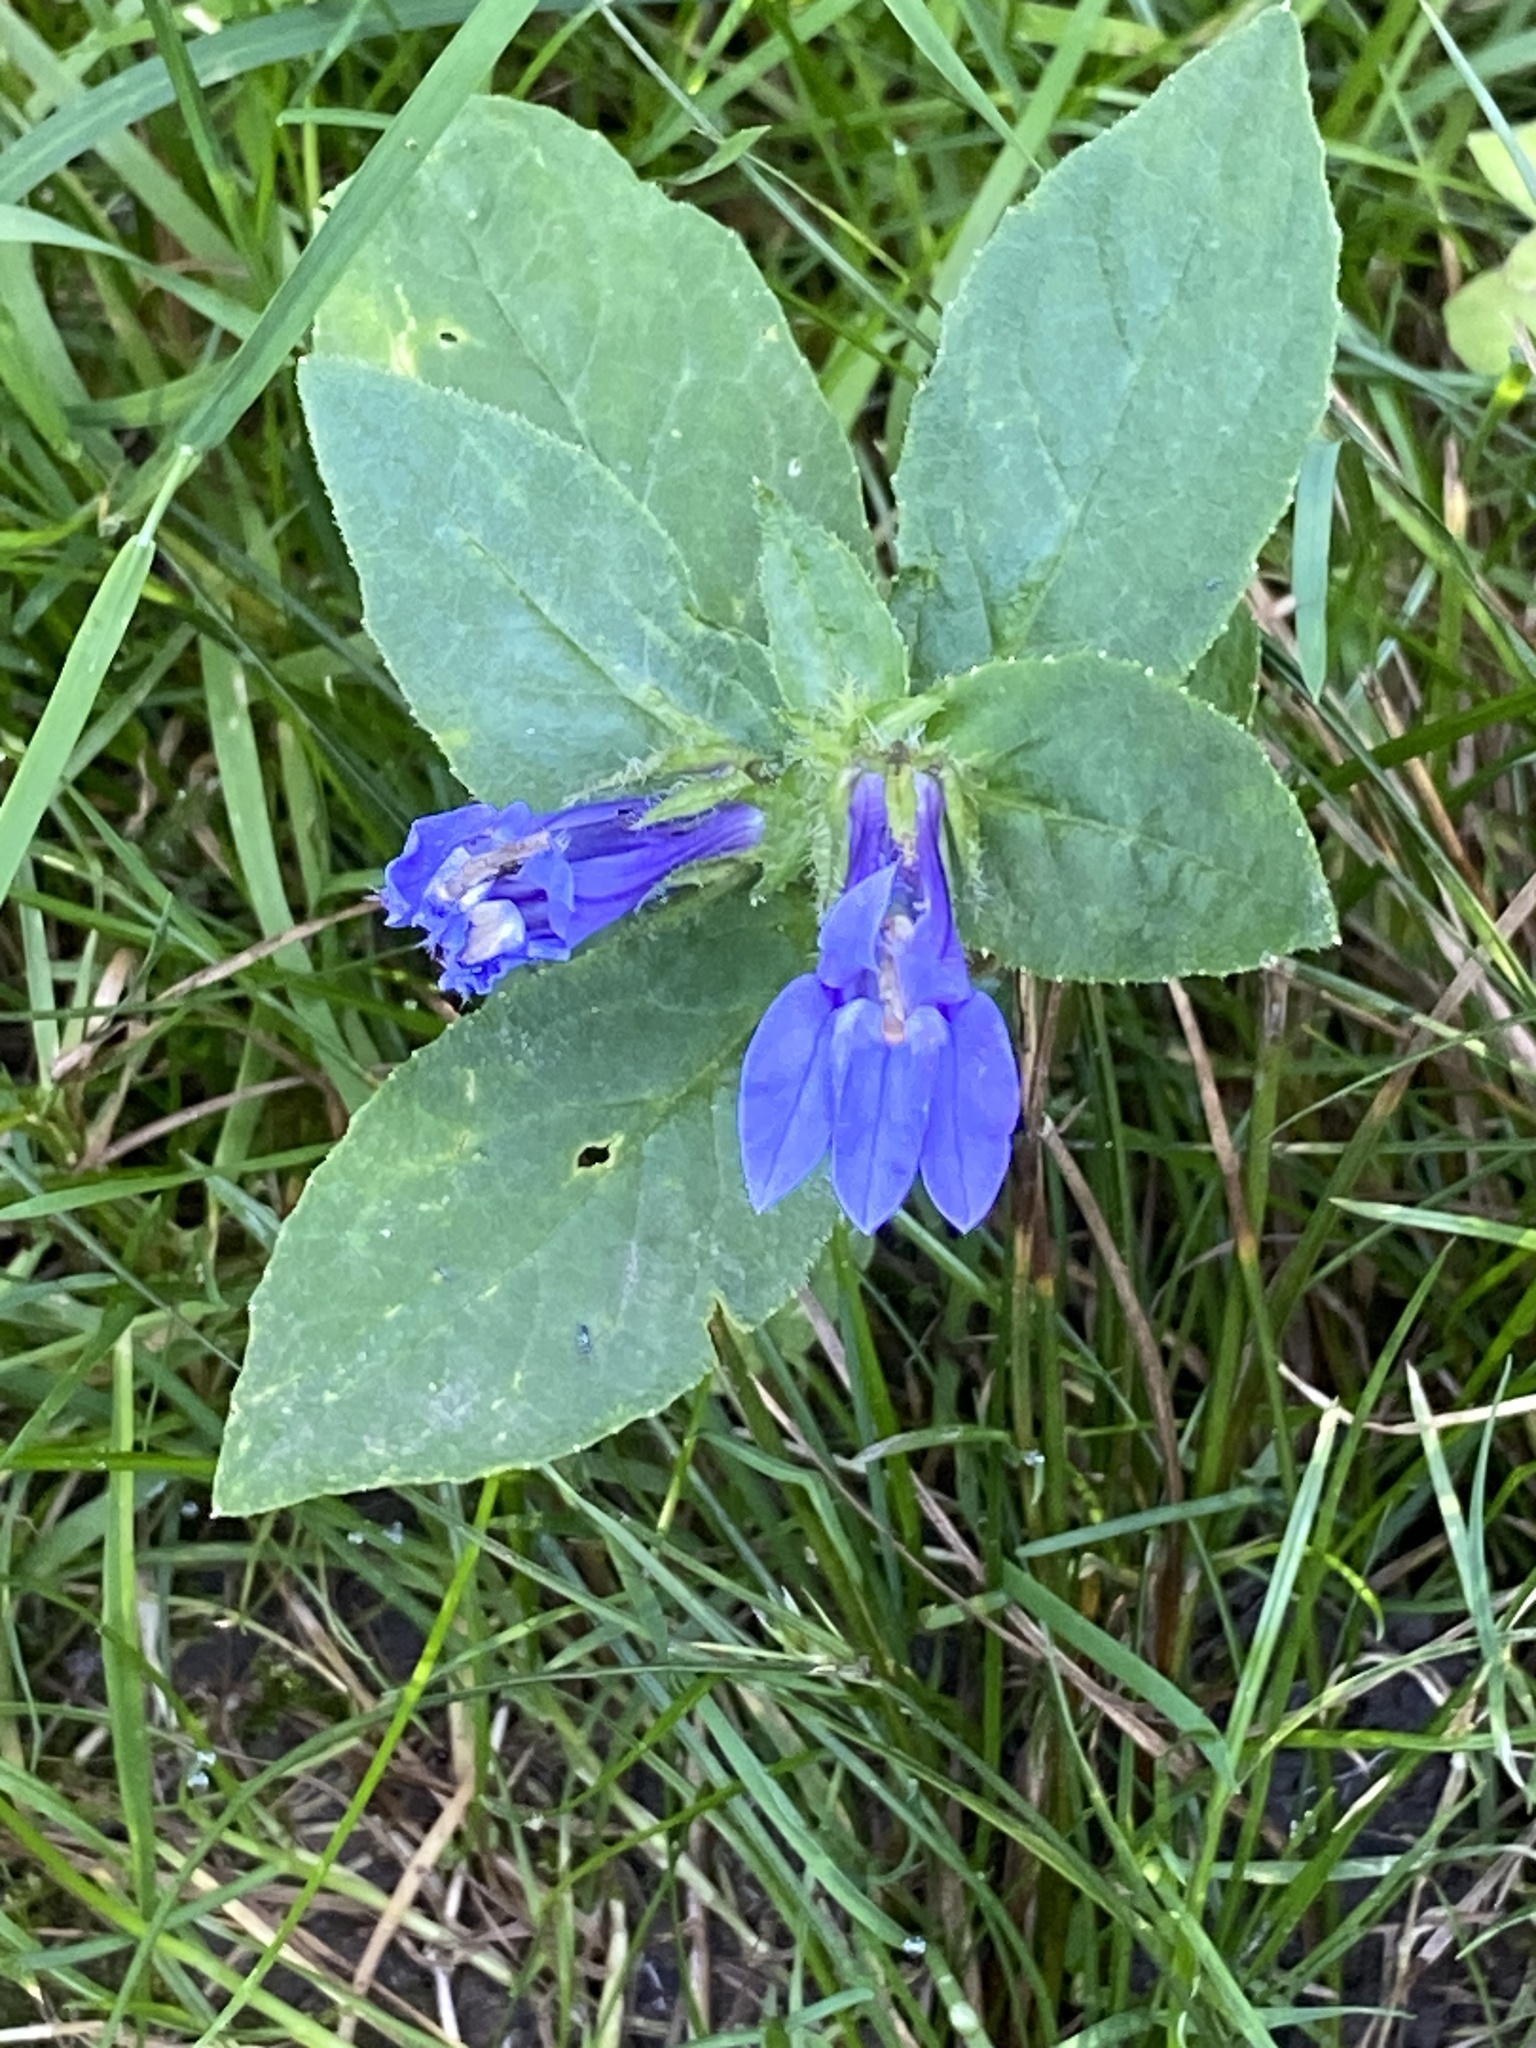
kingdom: Plantae
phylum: Tracheophyta
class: Magnoliopsida
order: Asterales
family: Campanulaceae
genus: Lobelia
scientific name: Lobelia siphilitica
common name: Great lobelia
